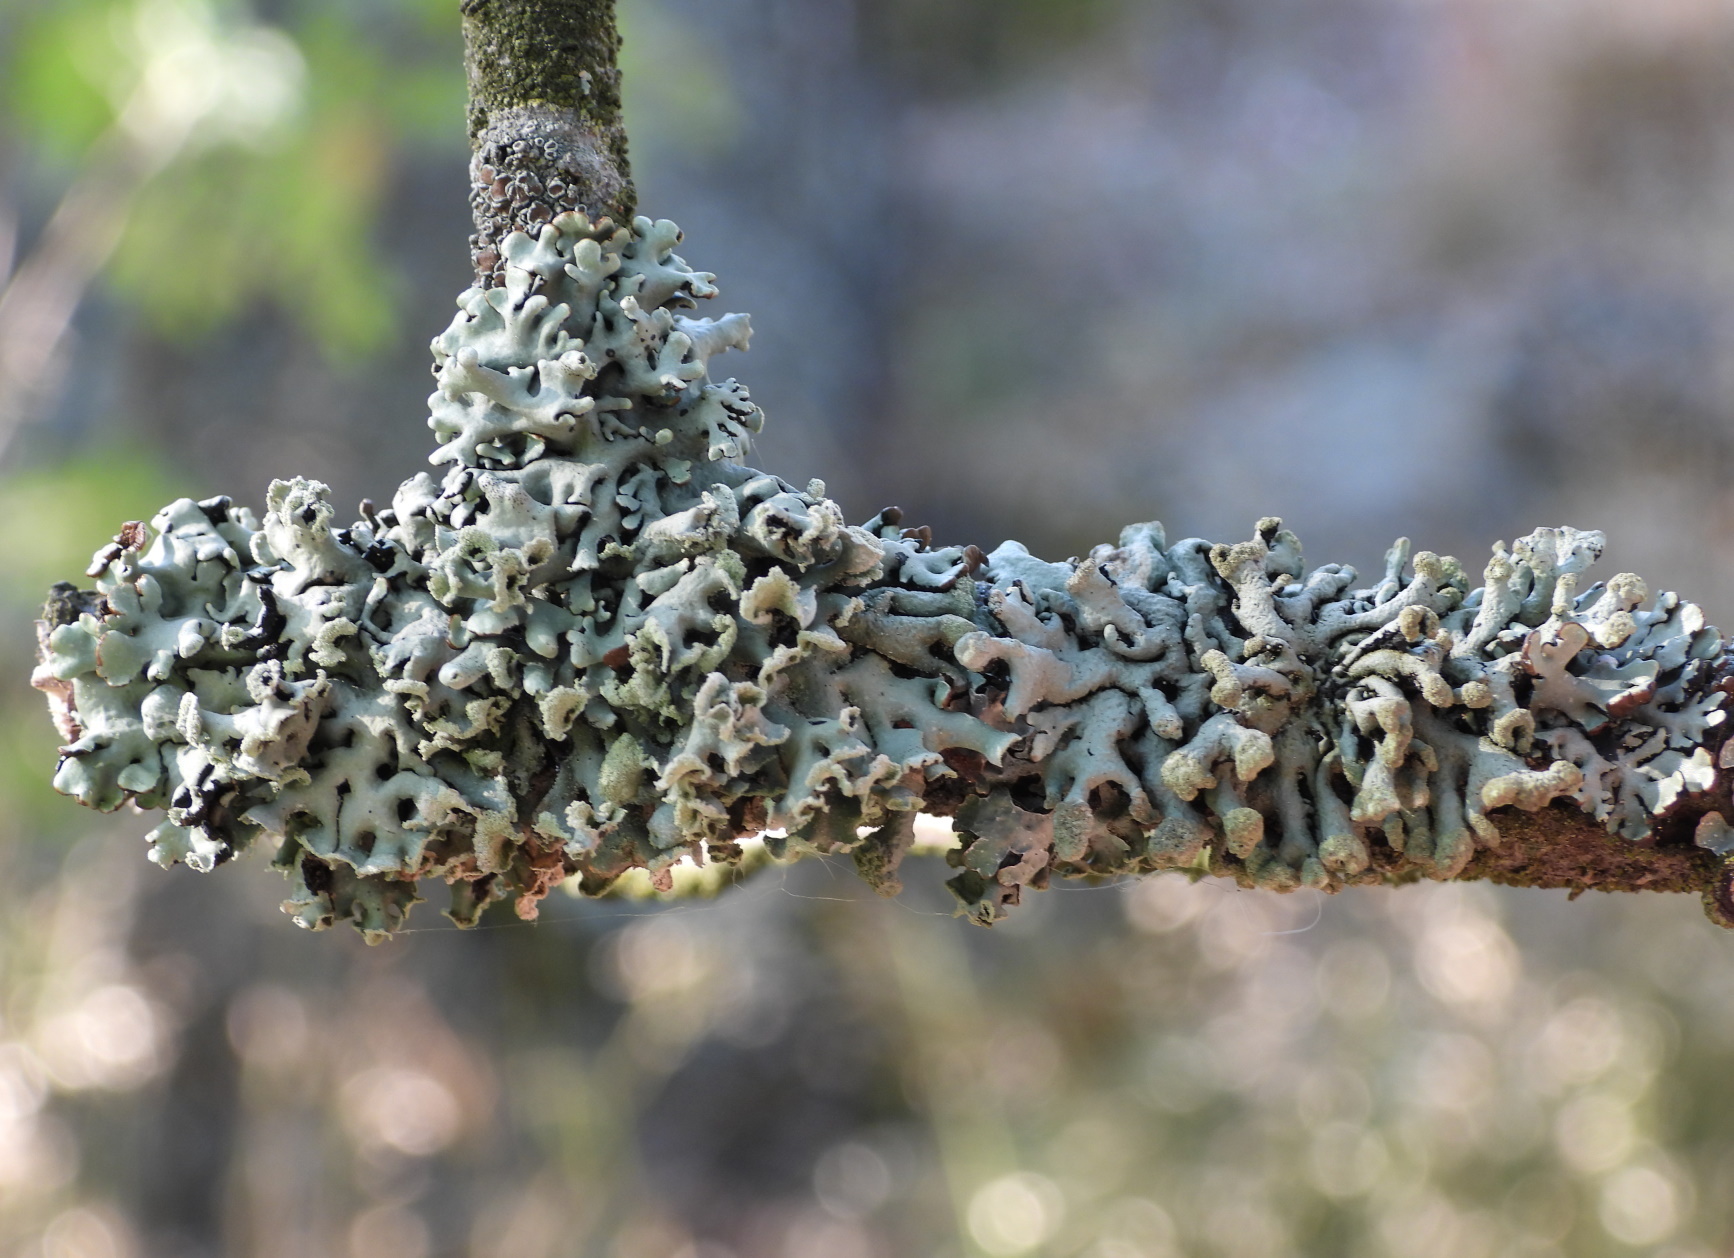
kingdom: Fungi
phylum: Ascomycota
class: Lecanoromycetes
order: Lecanorales
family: Parmeliaceae
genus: Hypogymnia
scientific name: Hypogymnia tubulosa
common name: Powder-headed tube lichen
